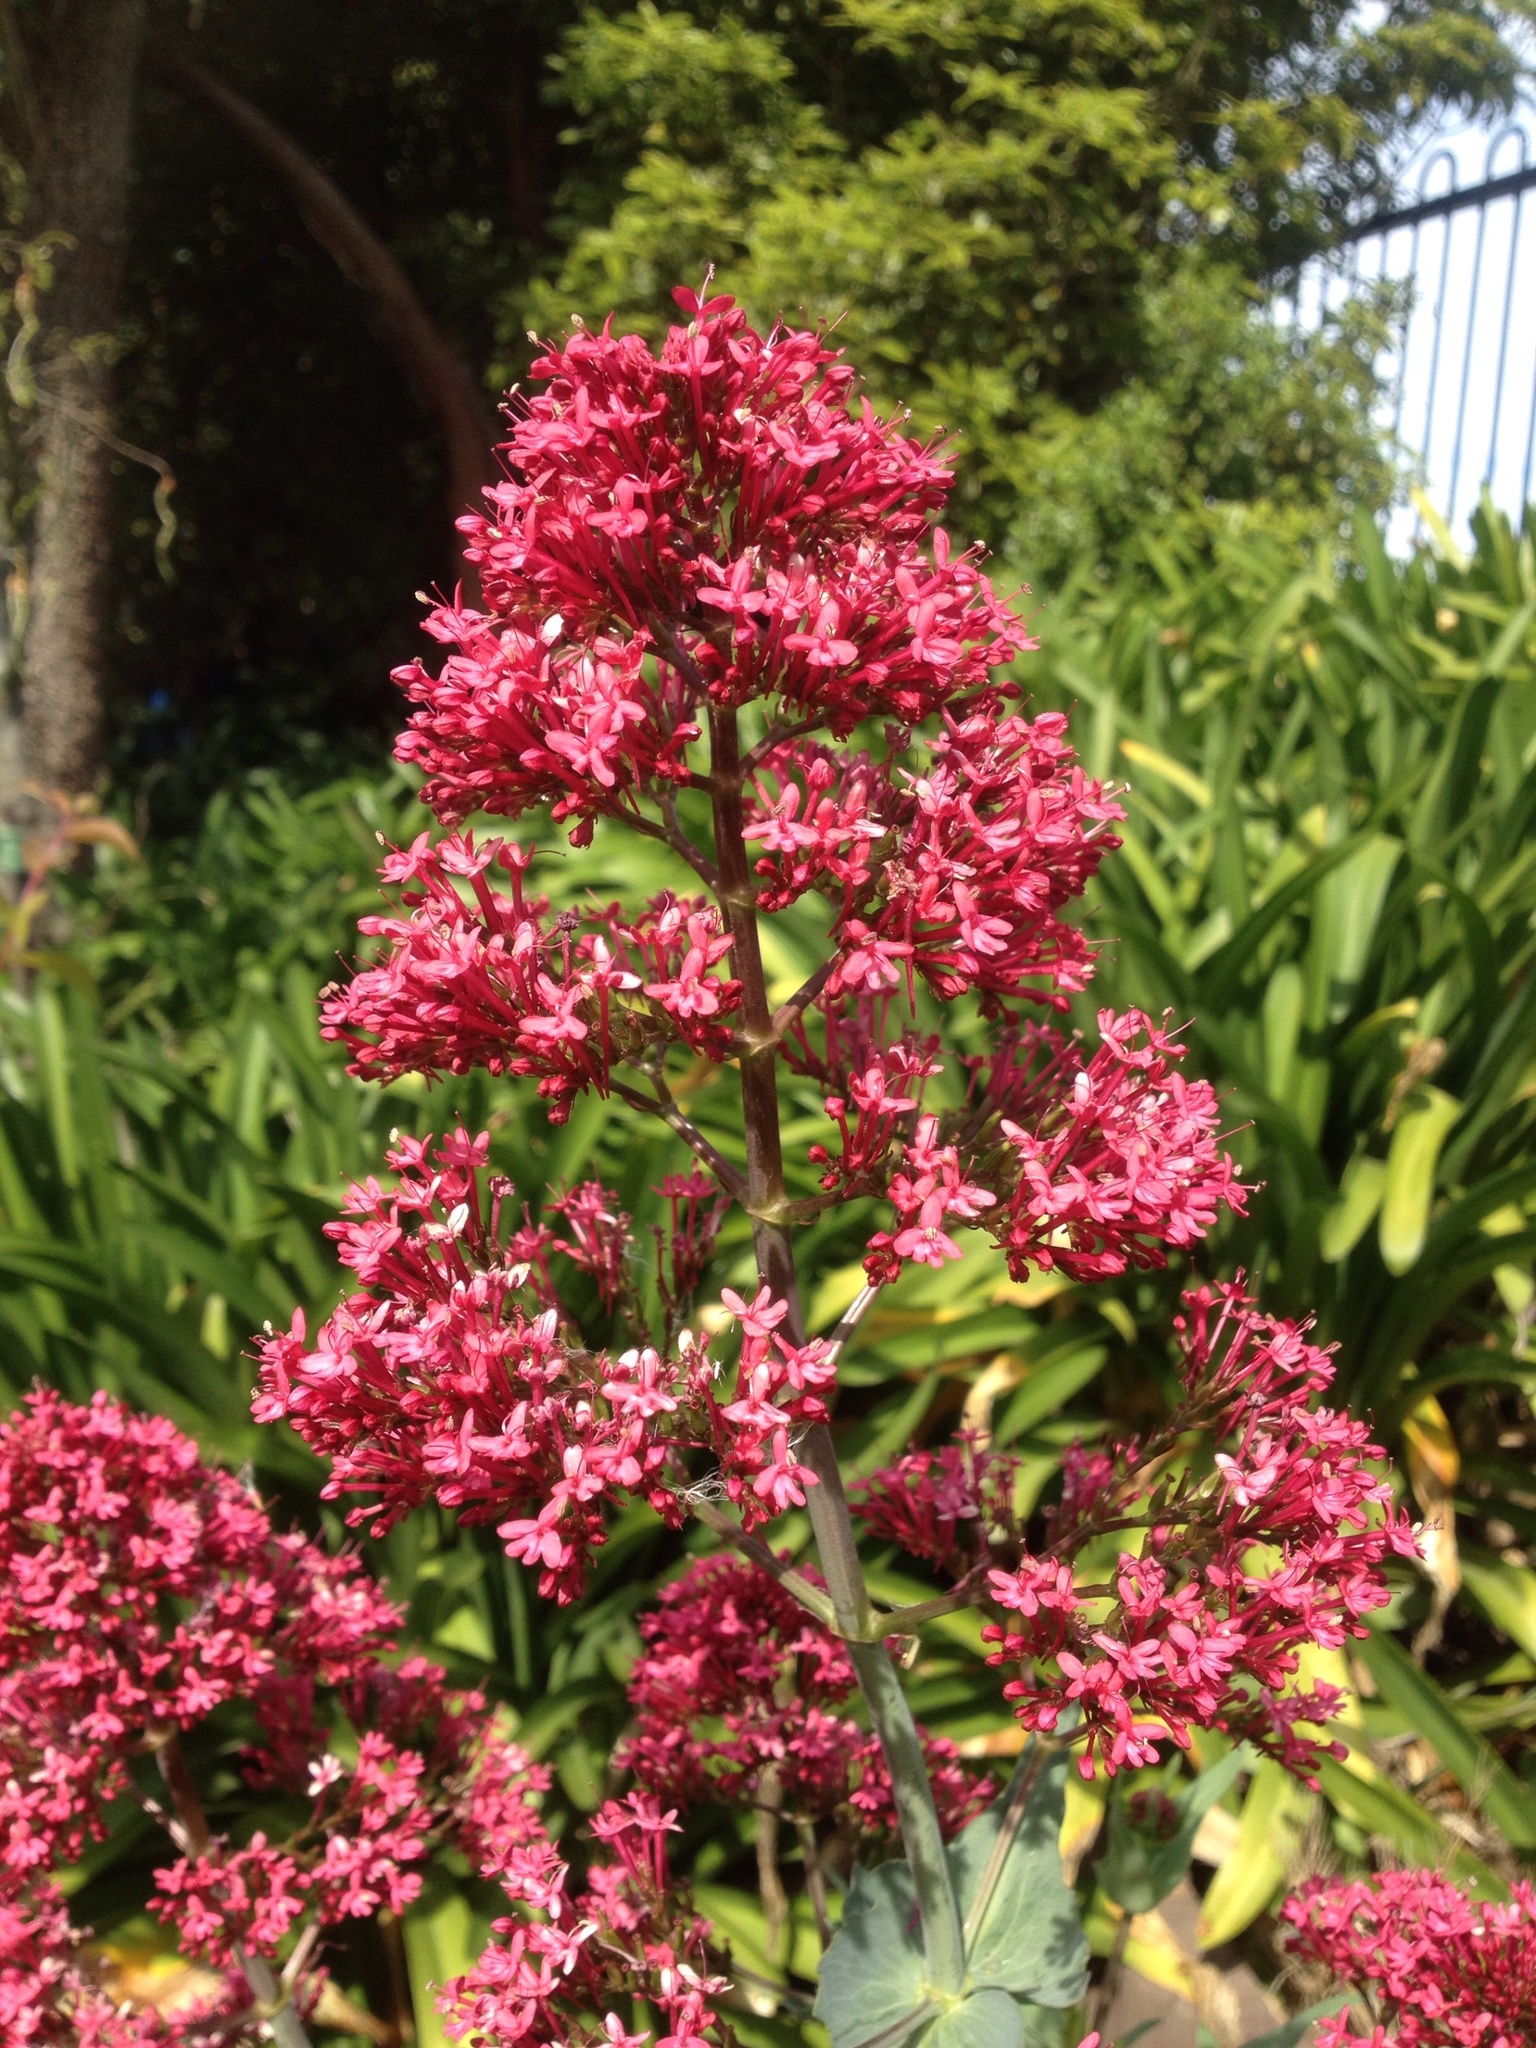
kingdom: Plantae
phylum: Tracheophyta
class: Magnoliopsida
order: Dipsacales
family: Caprifoliaceae
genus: Centranthus
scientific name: Centranthus ruber
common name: Red valerian
